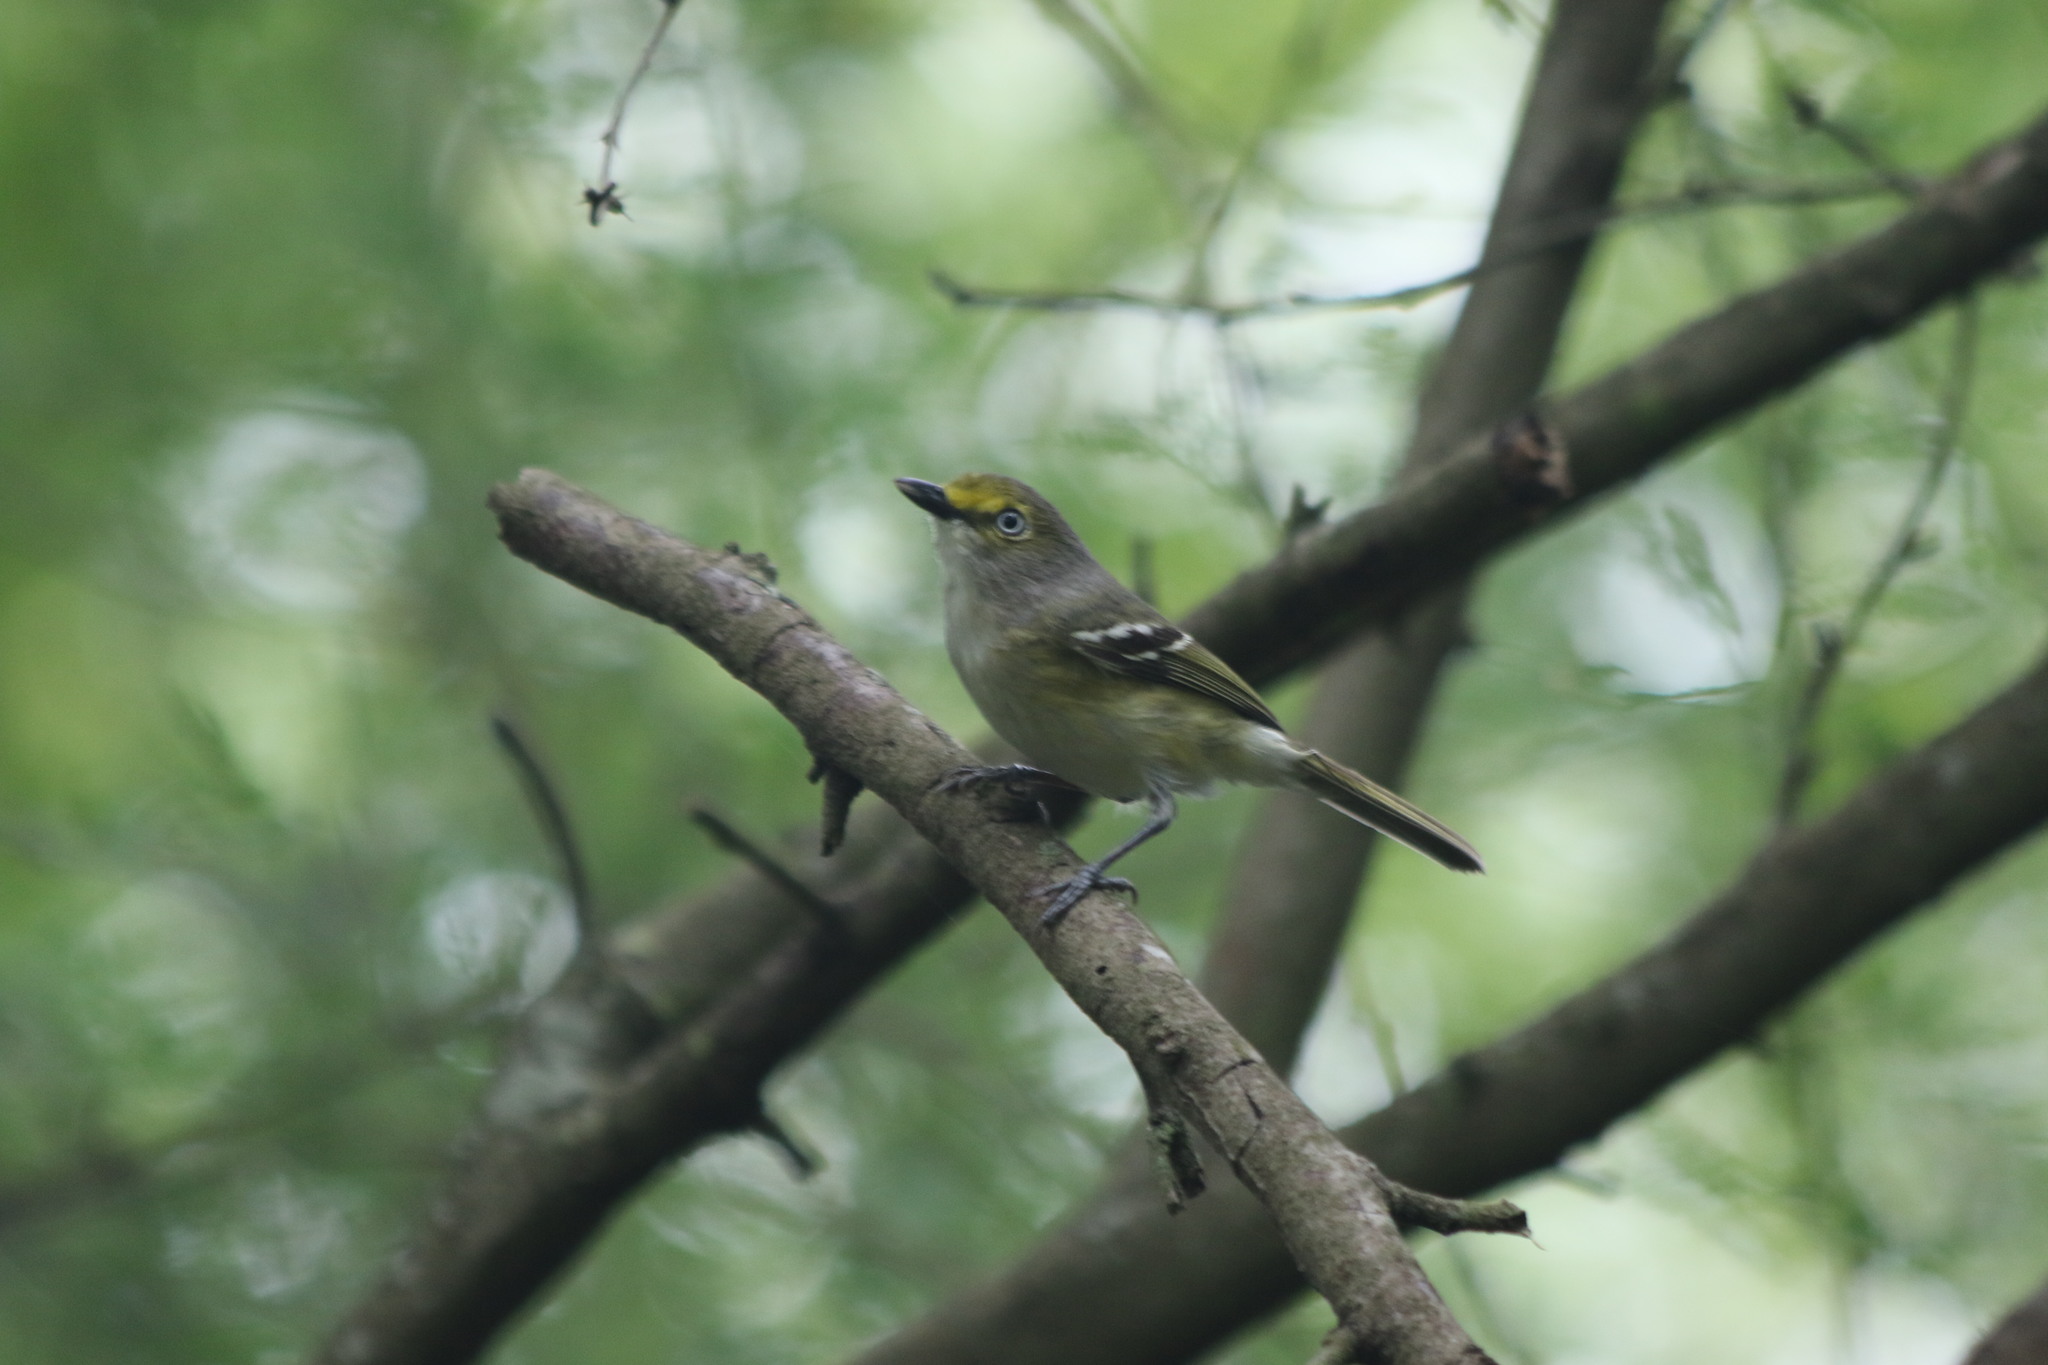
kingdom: Animalia
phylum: Chordata
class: Aves
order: Passeriformes
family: Vireonidae
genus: Vireo
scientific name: Vireo griseus
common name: White-eyed vireo
